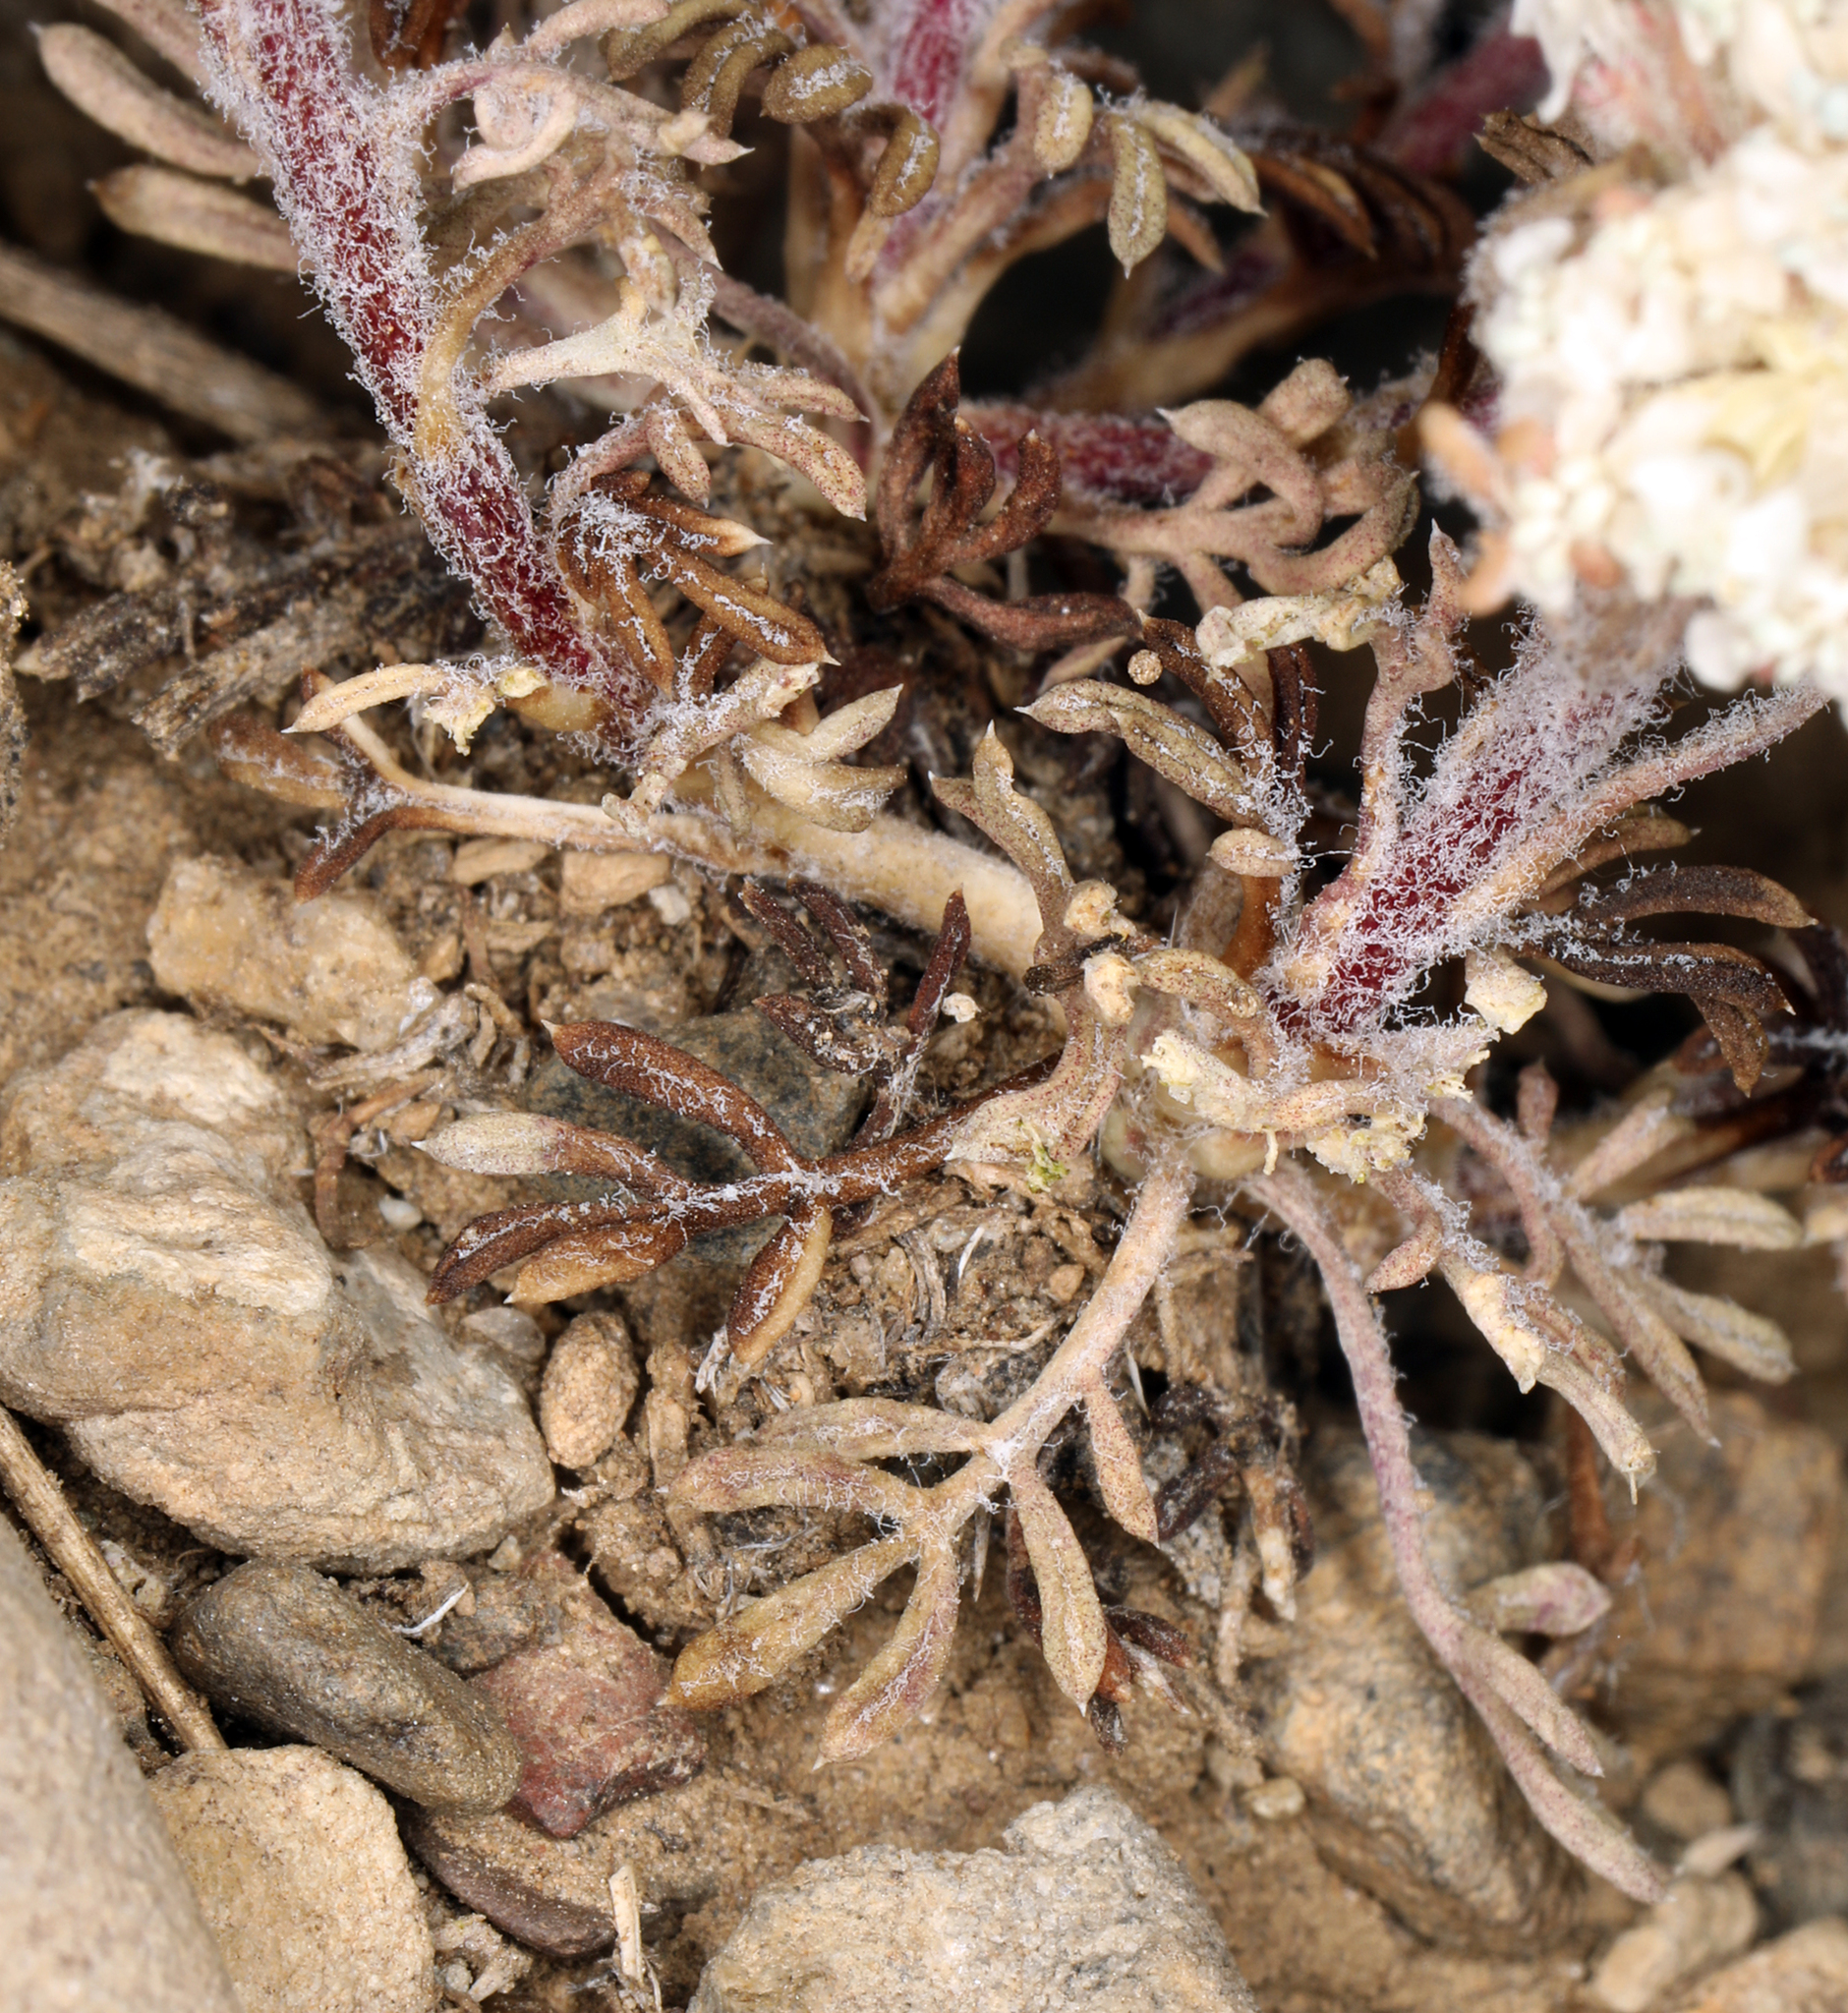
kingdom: Plantae
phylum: Tracheophyta
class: Magnoliopsida
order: Ericales
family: Polemoniaceae
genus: Ipomopsis
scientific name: Ipomopsis congesta
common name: Ball-head gilia
